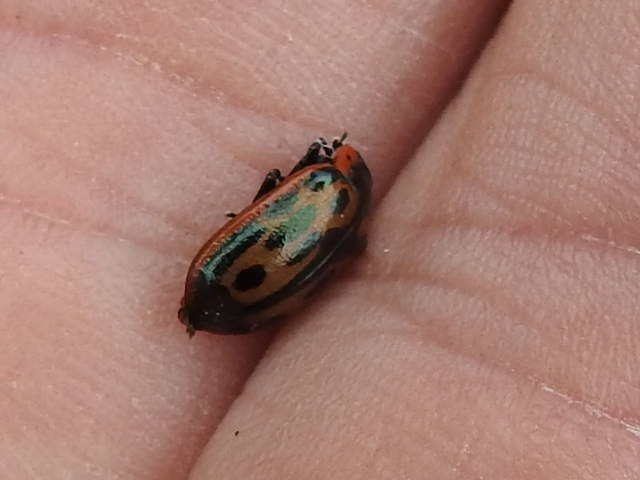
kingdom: Animalia
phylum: Arthropoda
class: Insecta
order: Coleoptera
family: Chrysomelidae
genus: Chrysomela
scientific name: Chrysomela confluens
